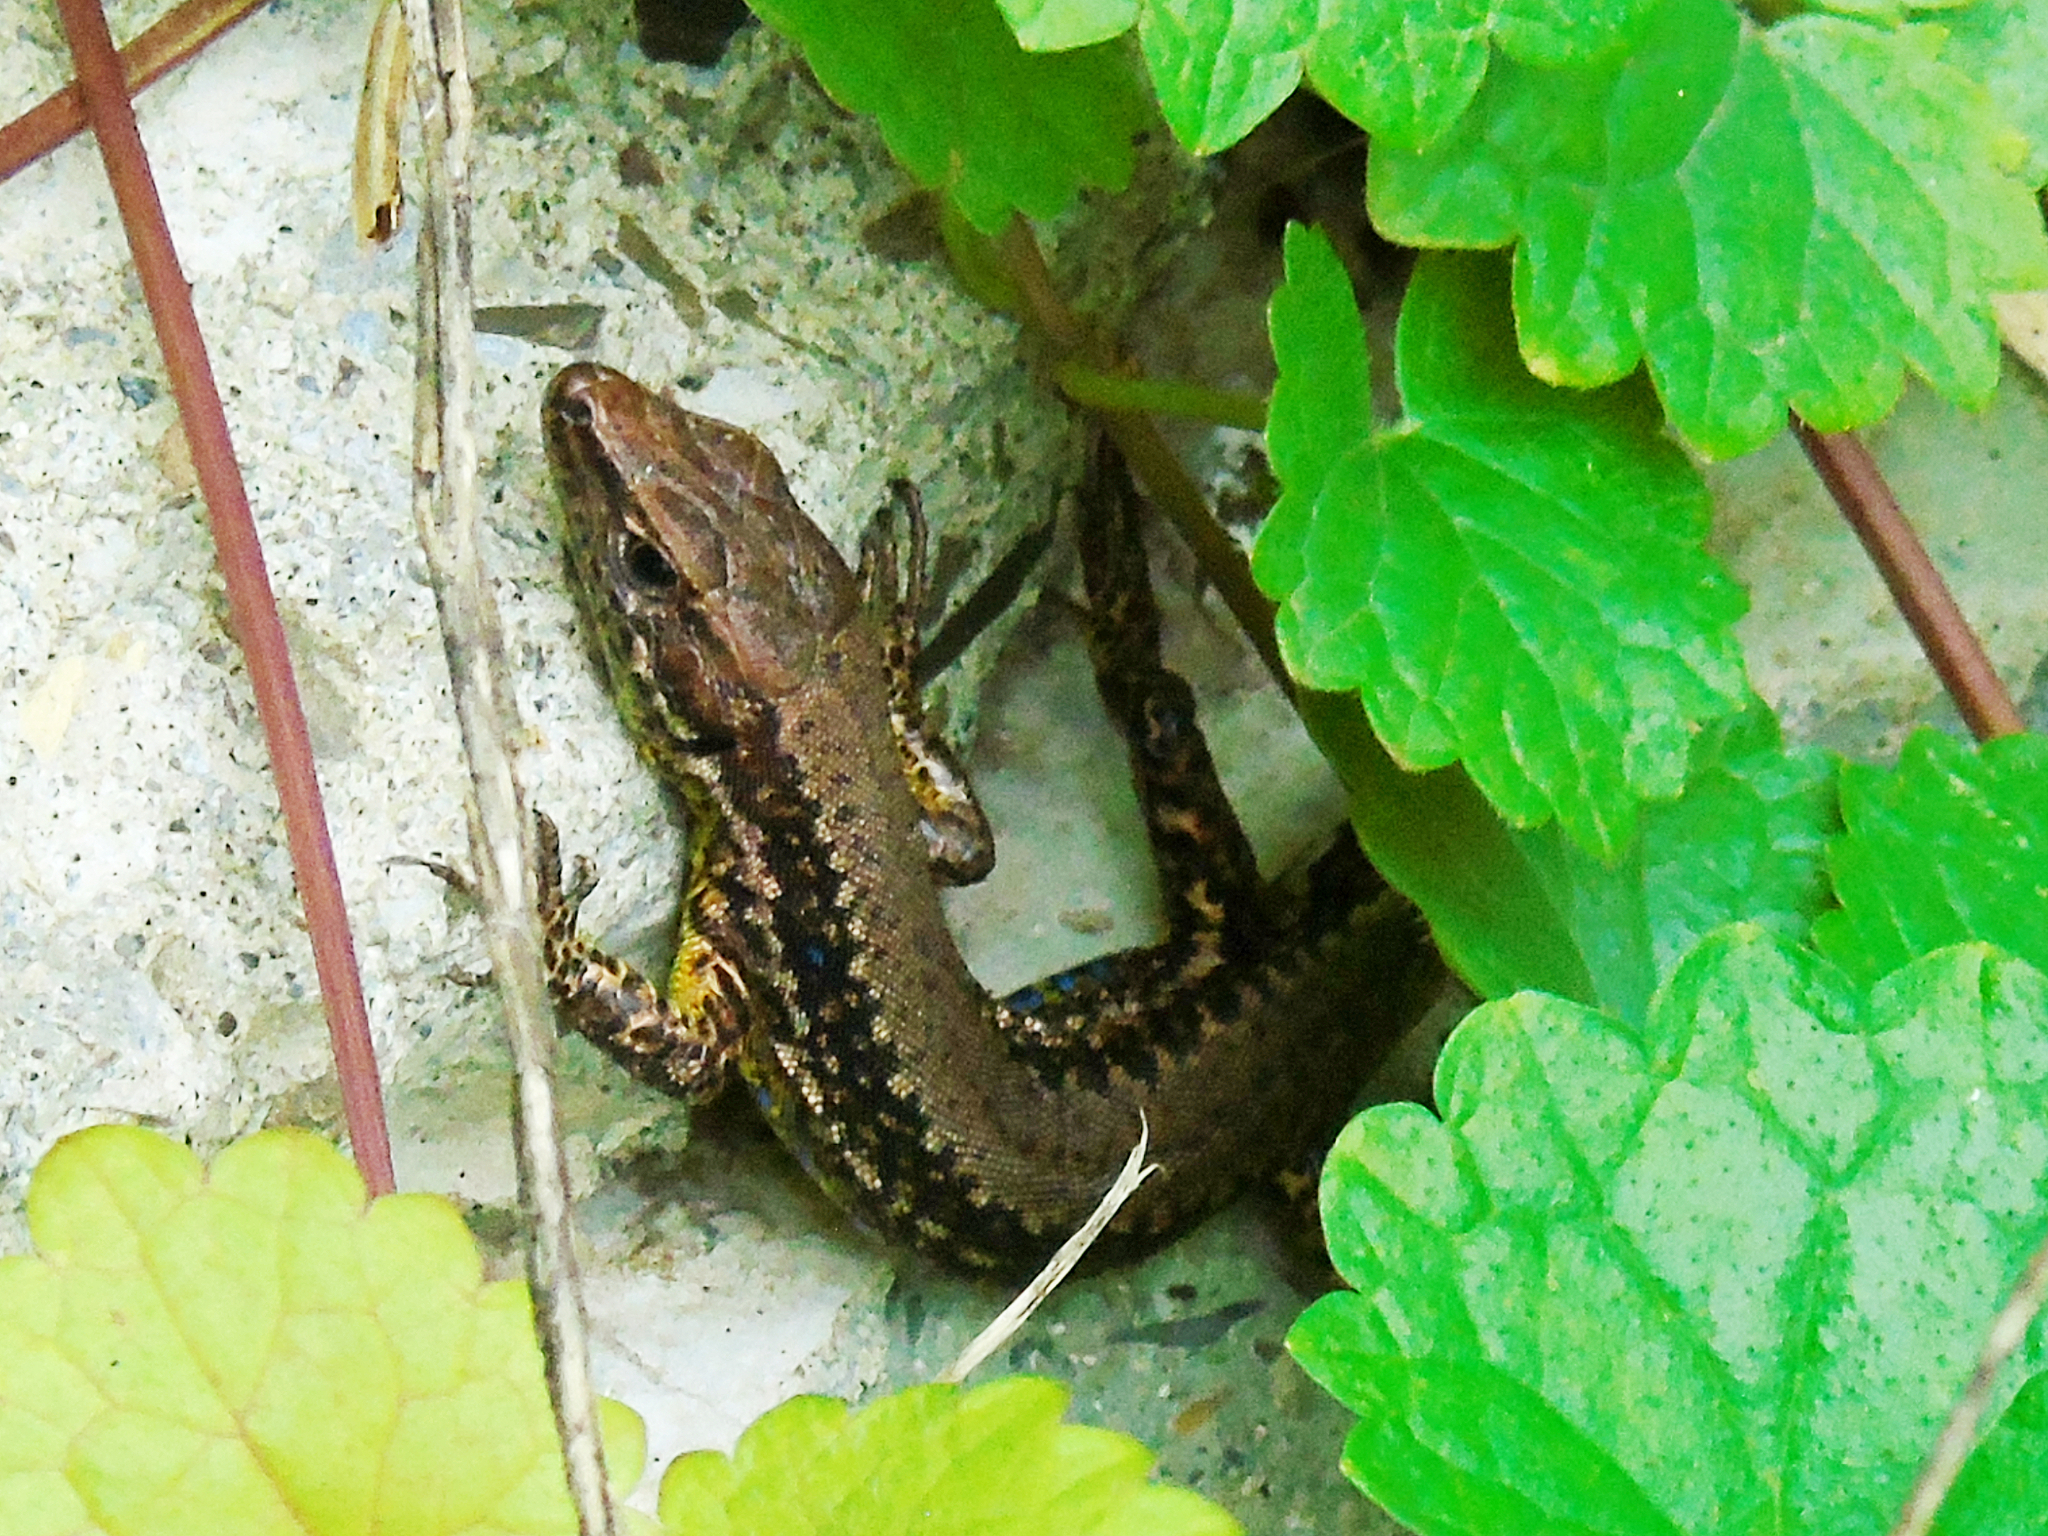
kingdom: Animalia
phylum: Chordata
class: Squamata
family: Lacertidae
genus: Darevskia
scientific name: Darevskia derjugini
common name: Derjugin's lizard
